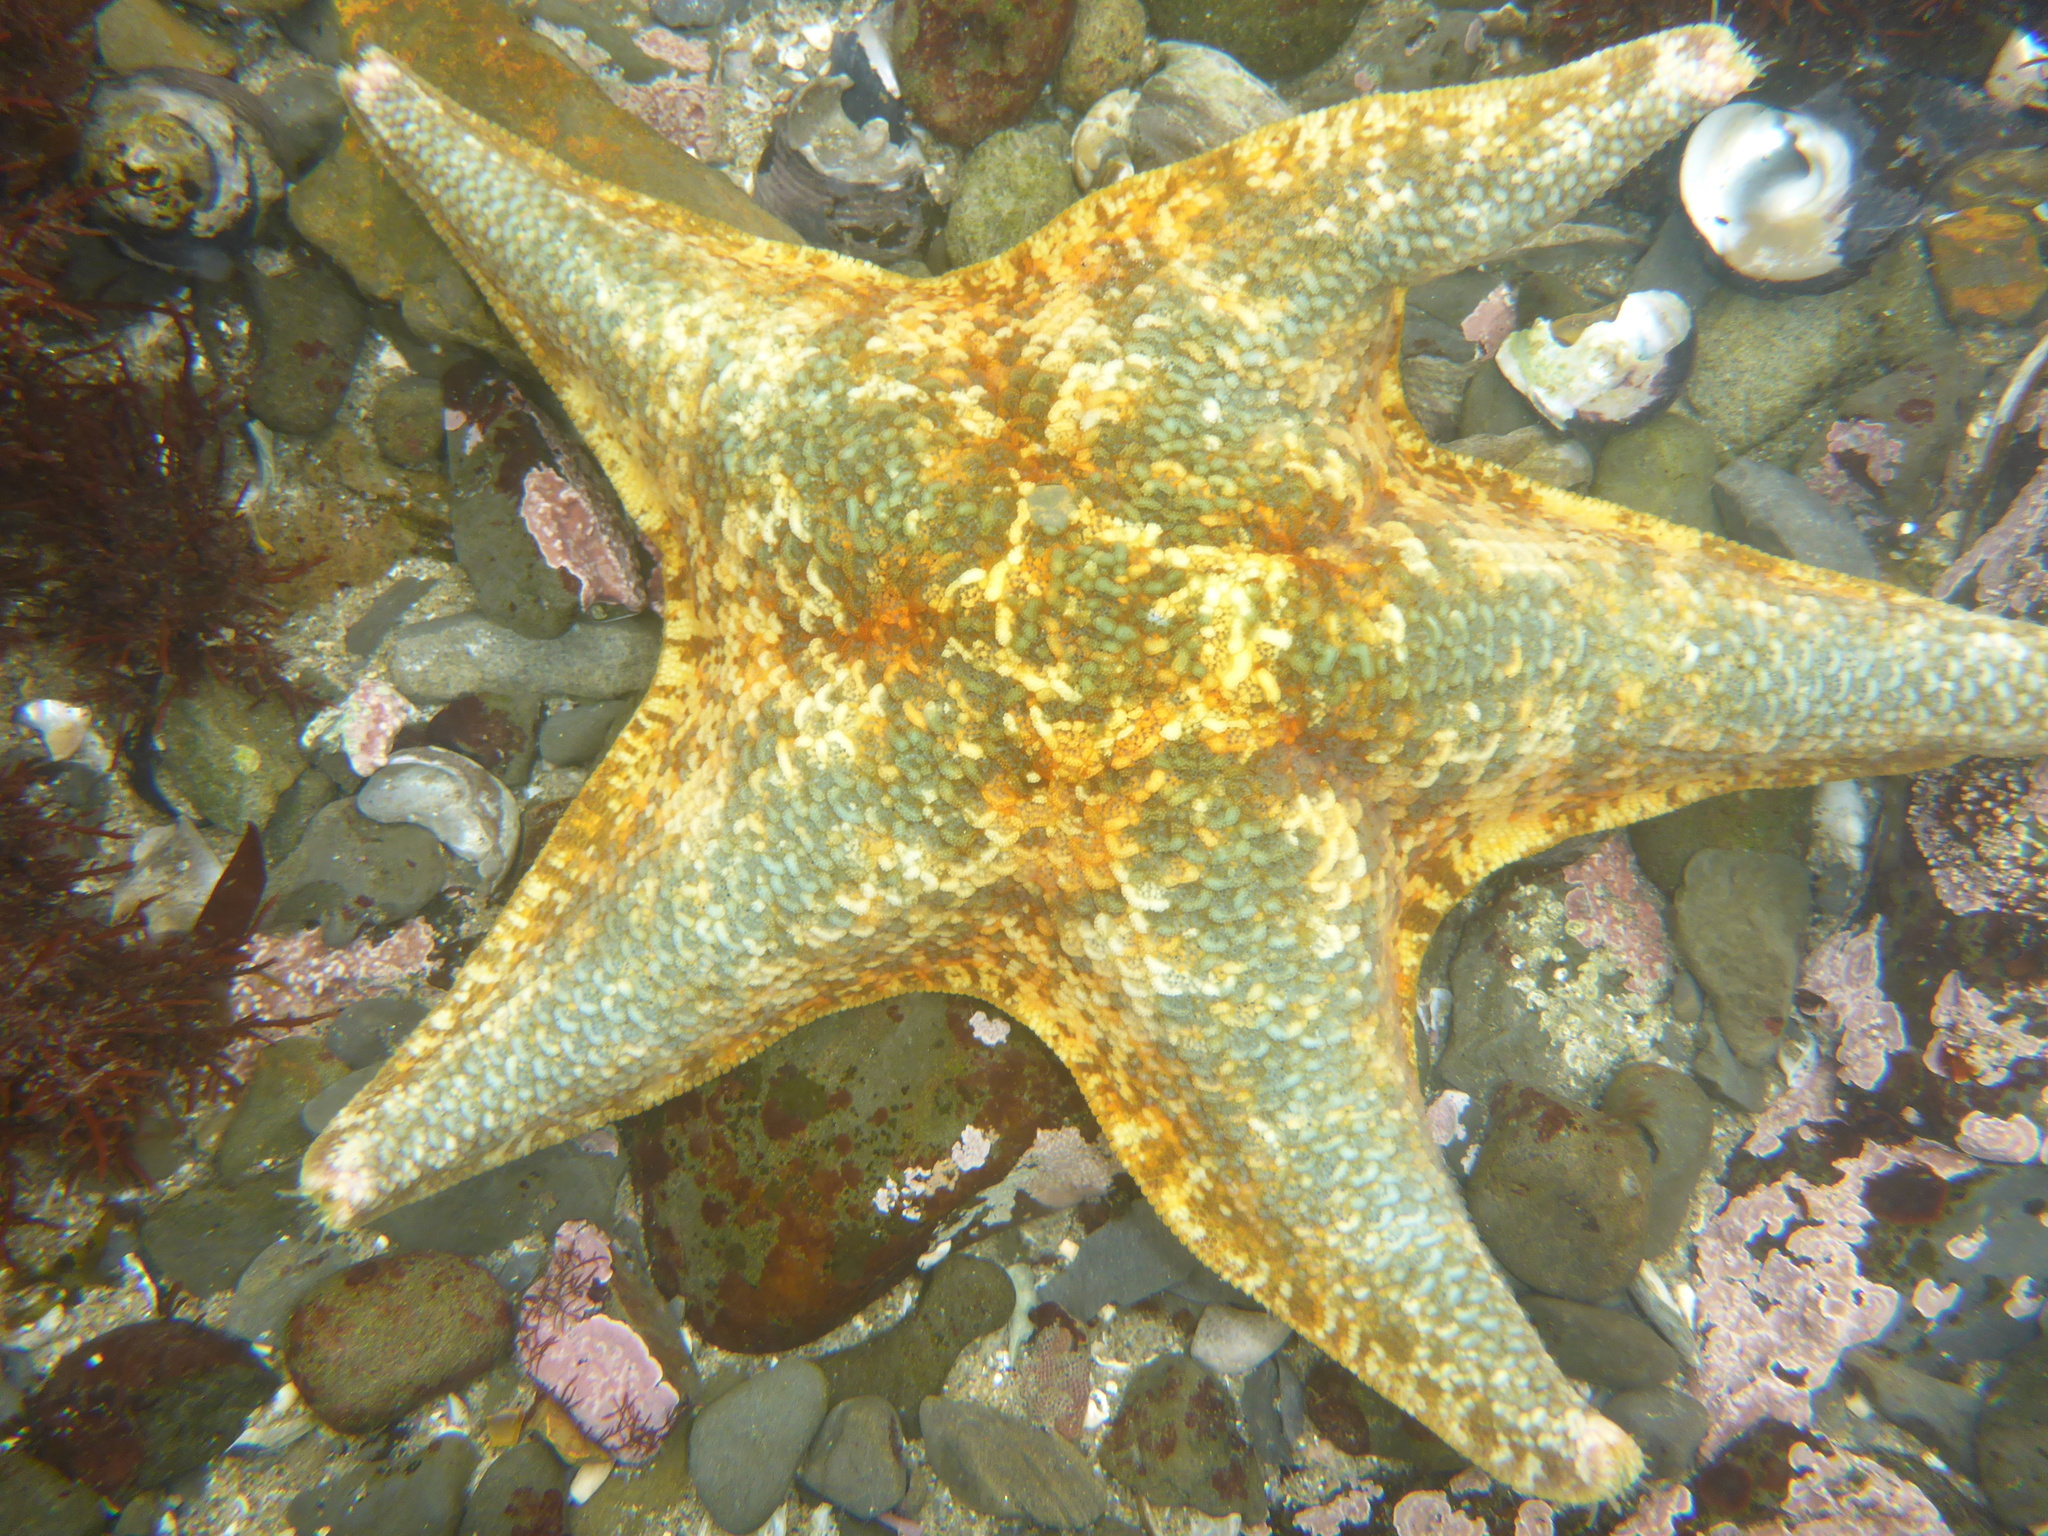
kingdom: Animalia
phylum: Echinodermata
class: Asteroidea
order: Valvatida
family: Asterinidae
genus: Patiria
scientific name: Patiria miniata
